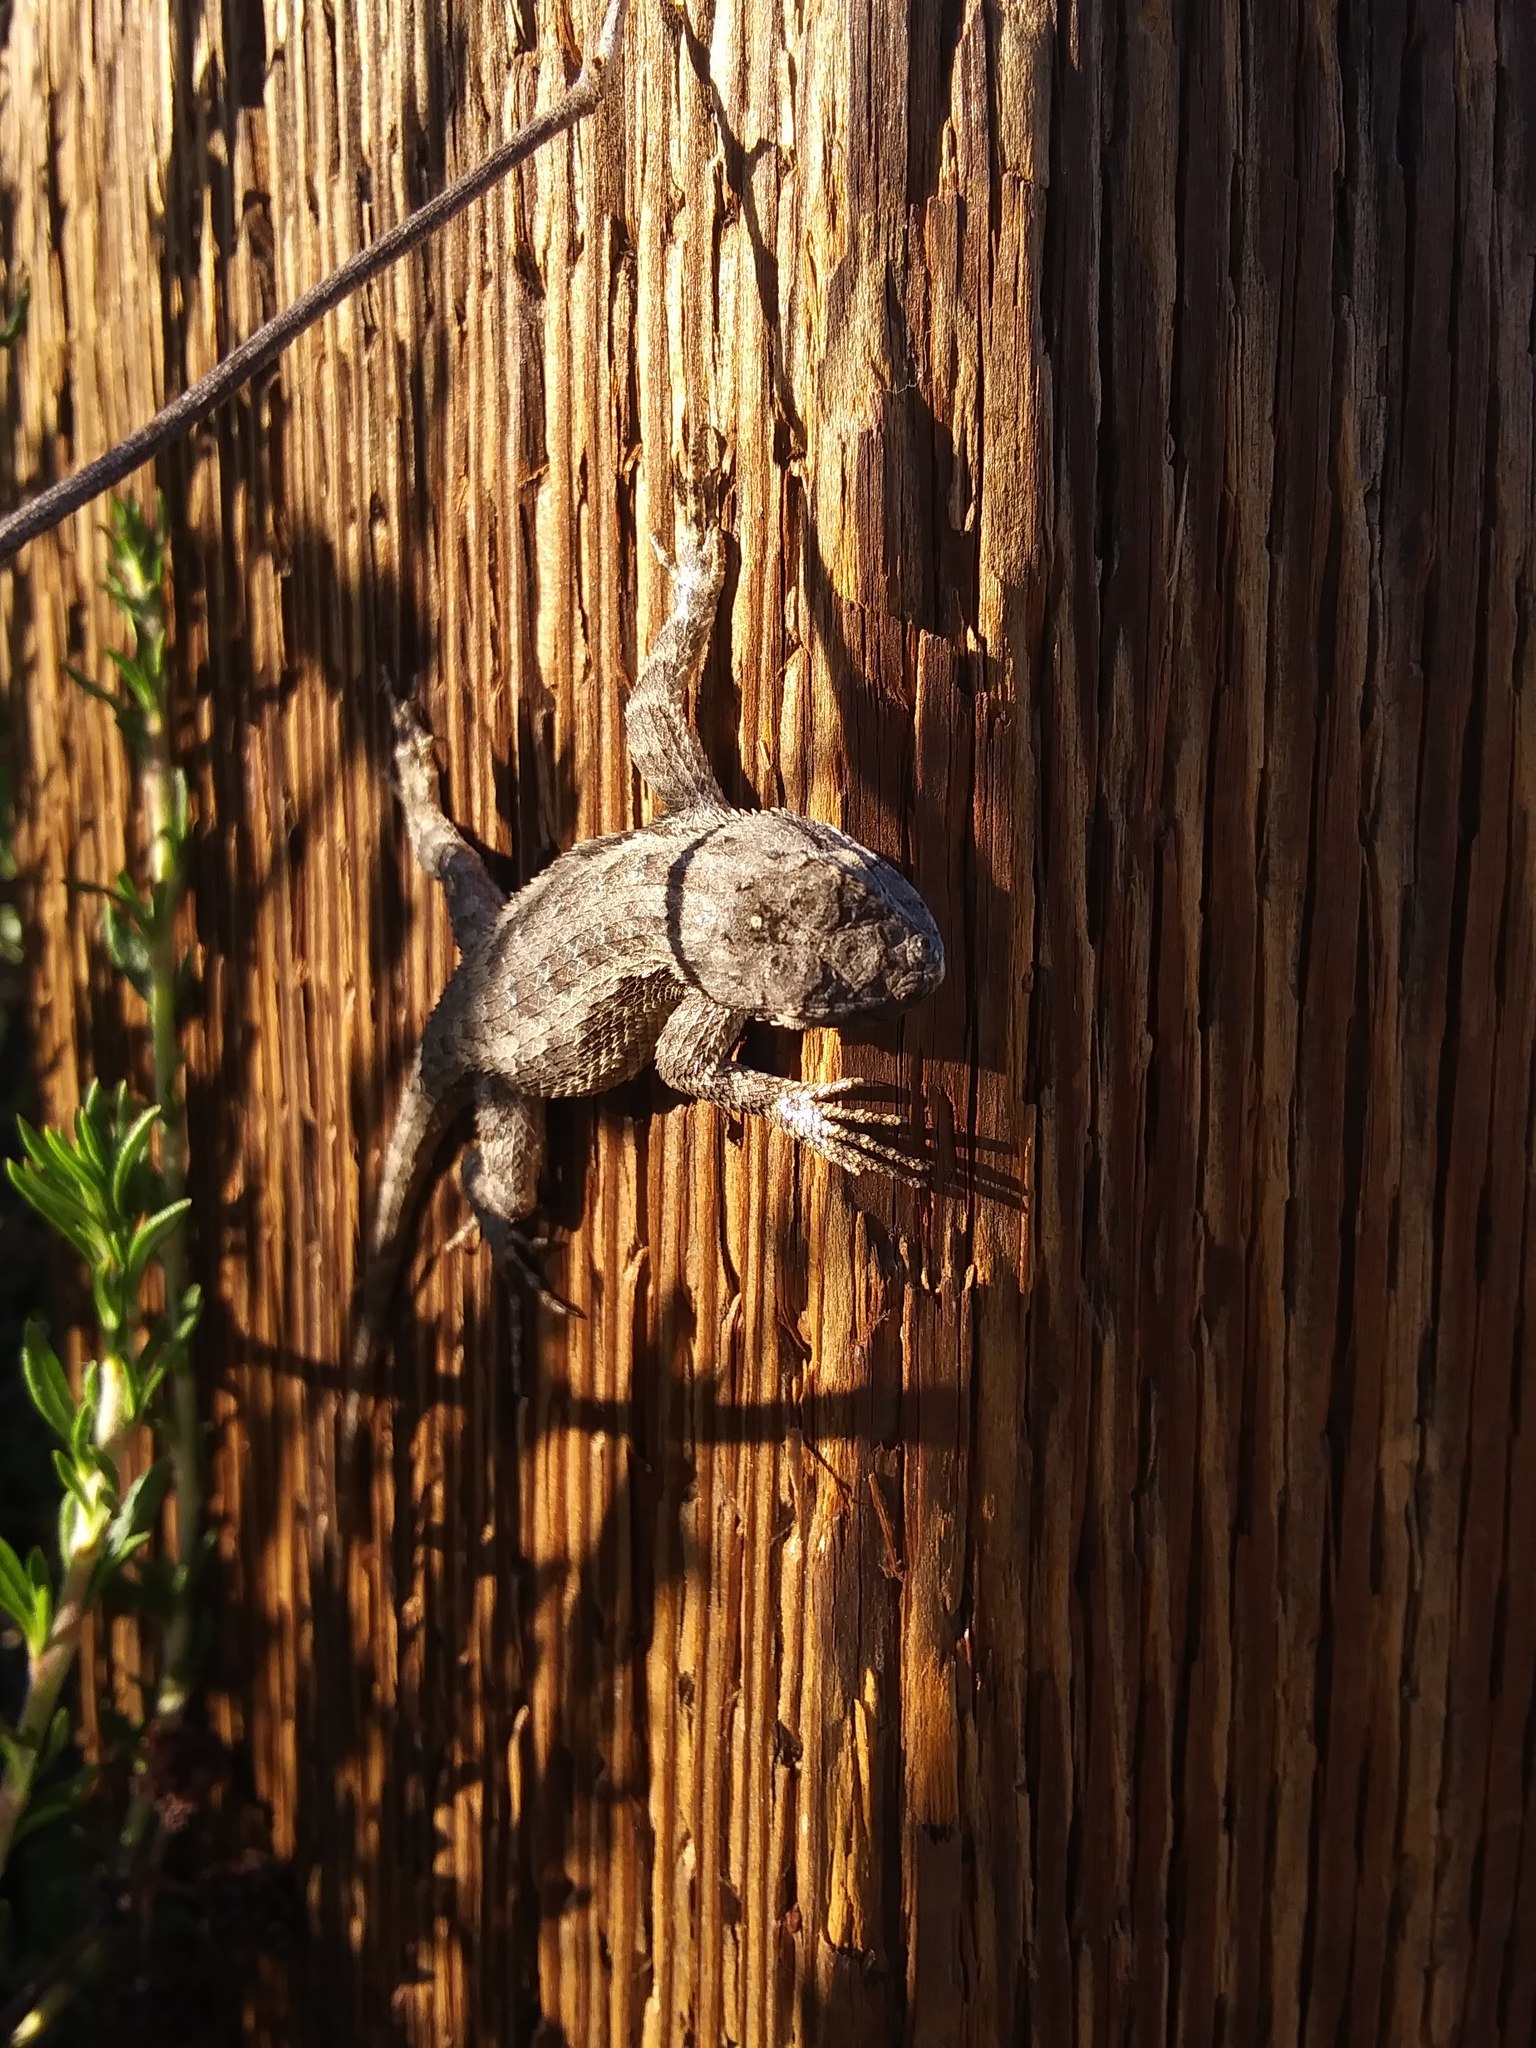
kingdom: Animalia
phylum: Chordata
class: Squamata
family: Phrynosomatidae
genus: Sceloporus
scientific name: Sceloporus occidentalis
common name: Western fence lizard
